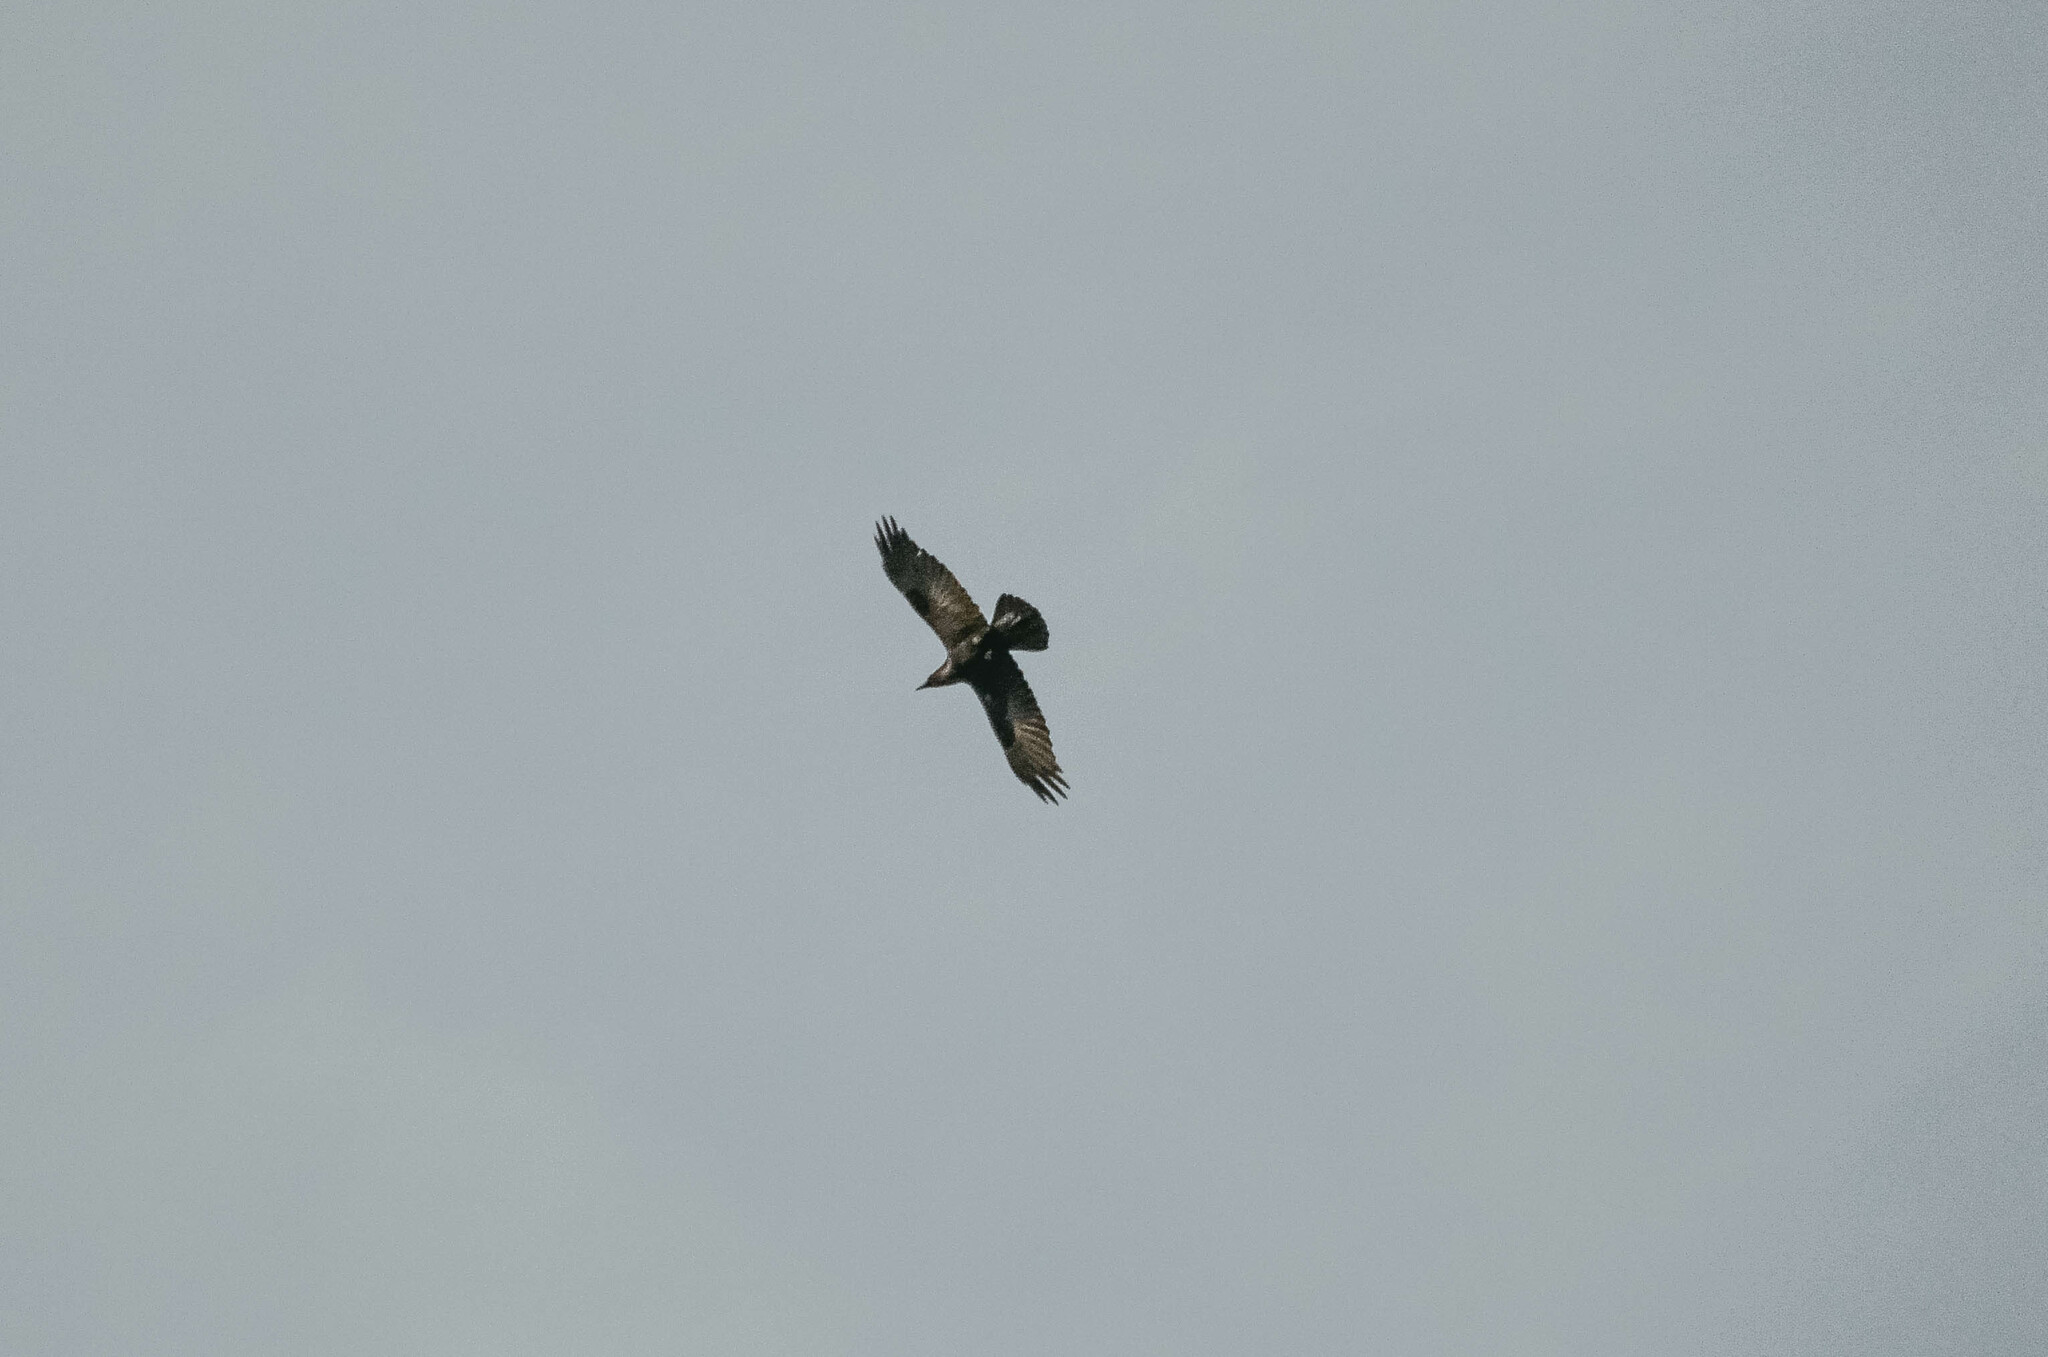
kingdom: Animalia
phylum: Chordata
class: Aves
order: Passeriformes
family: Corvidae
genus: Corvus
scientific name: Corvus corax
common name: Common raven
